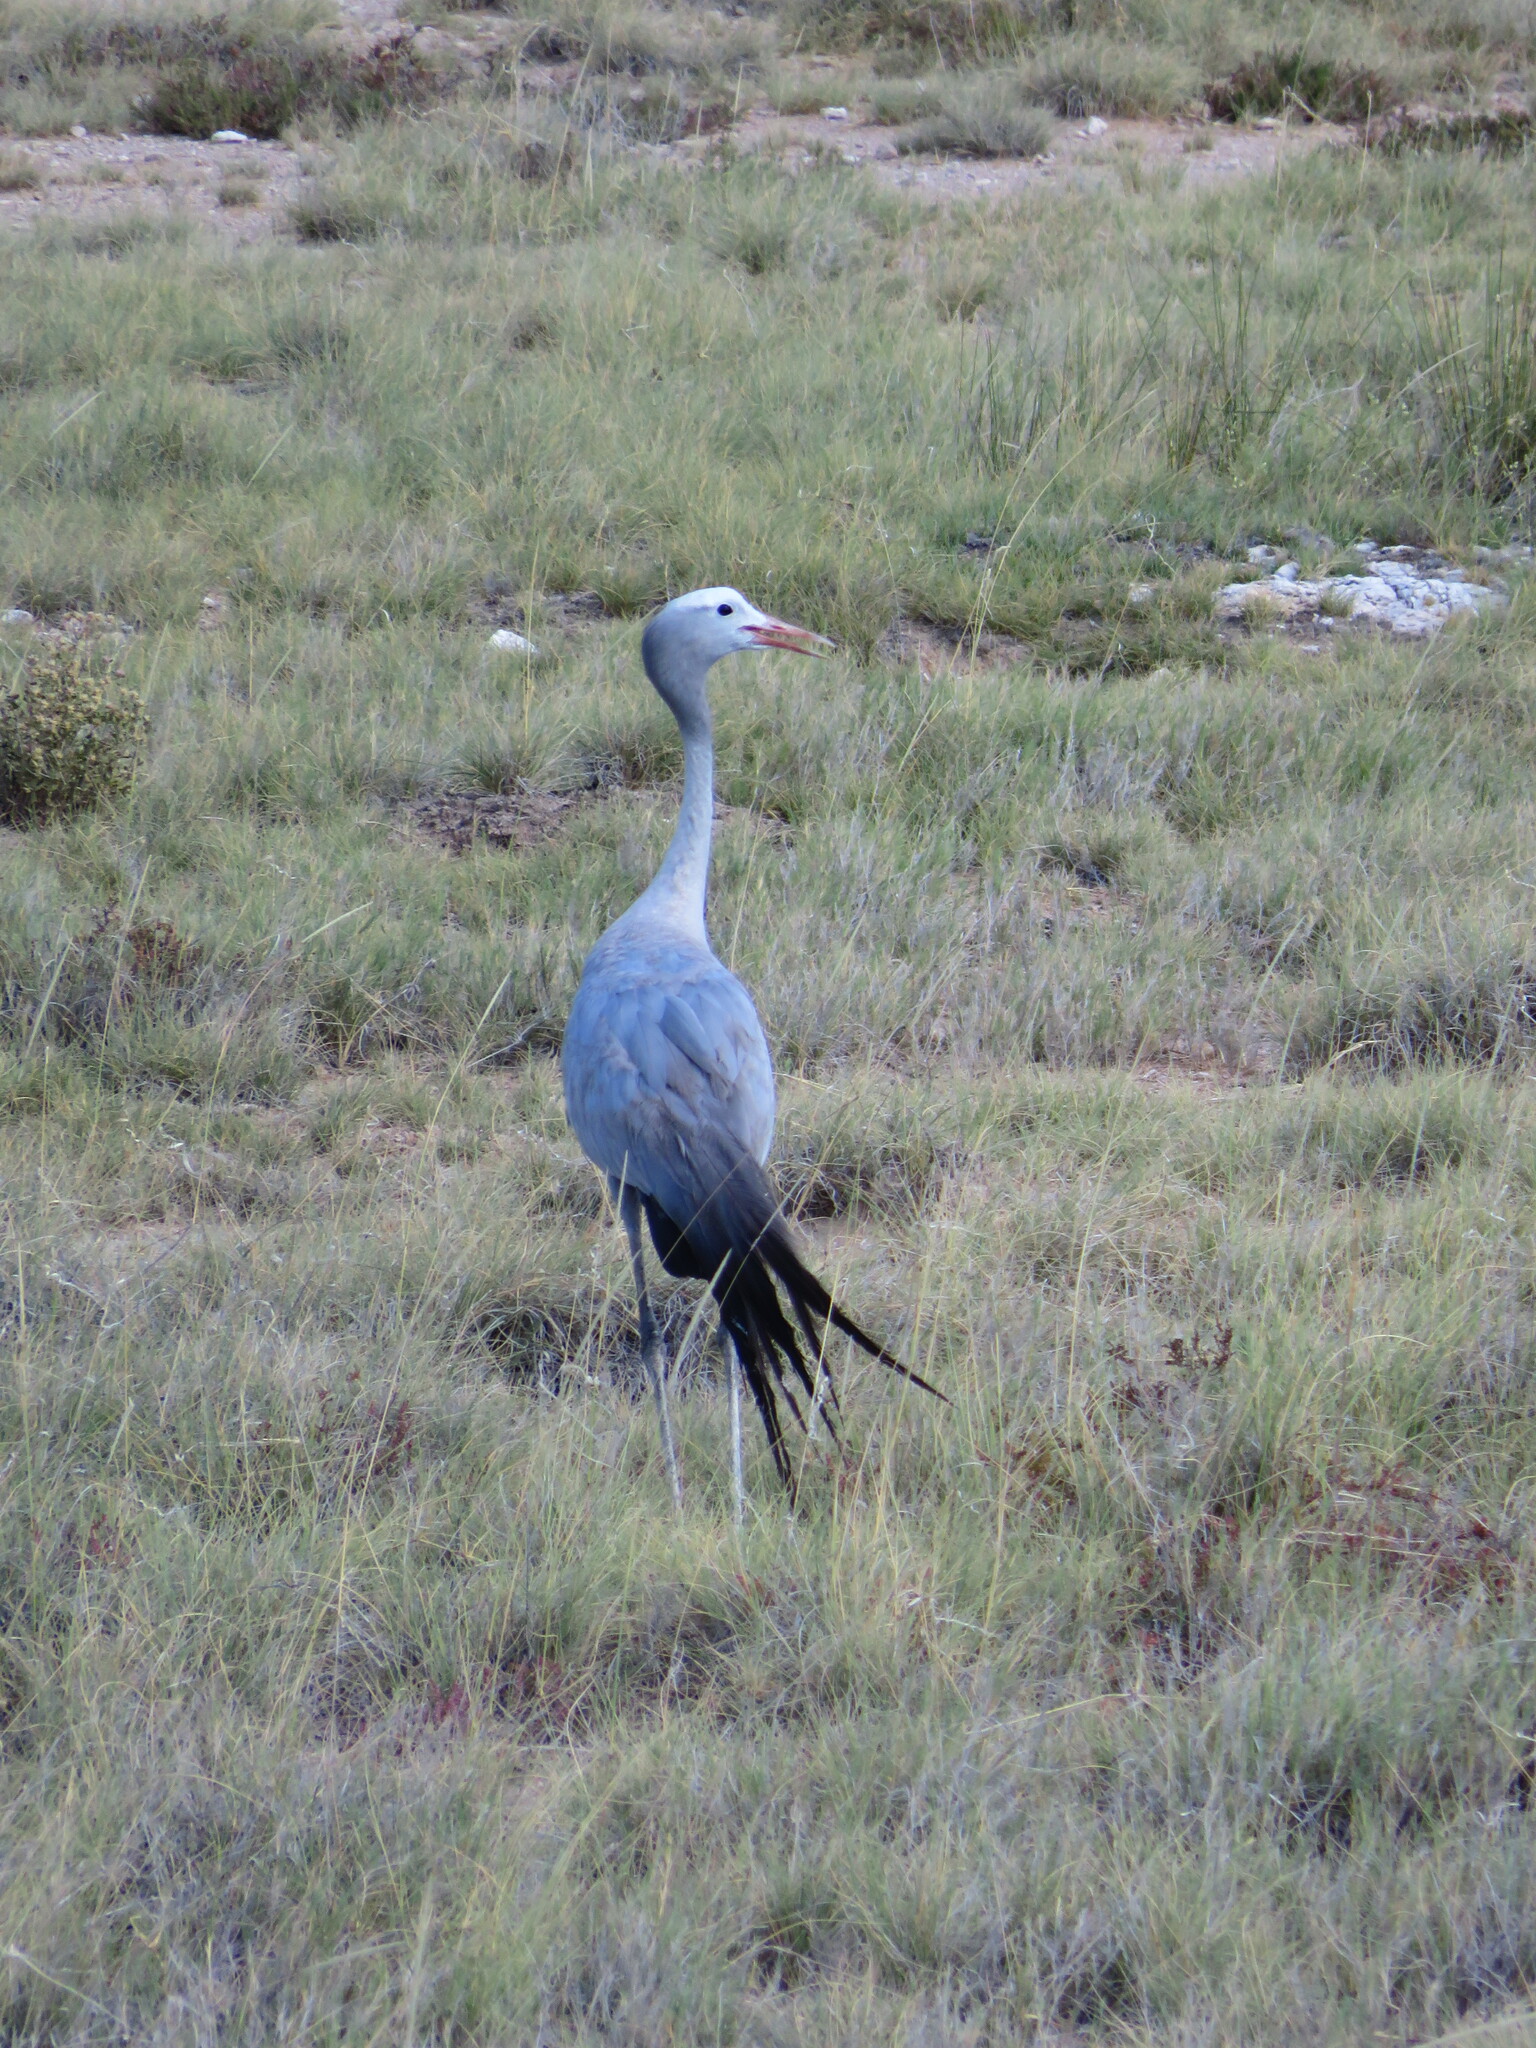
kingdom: Animalia
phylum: Chordata
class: Aves
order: Gruiformes
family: Gruidae
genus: Anthropoides
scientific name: Anthropoides paradiseus
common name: Blue crane
